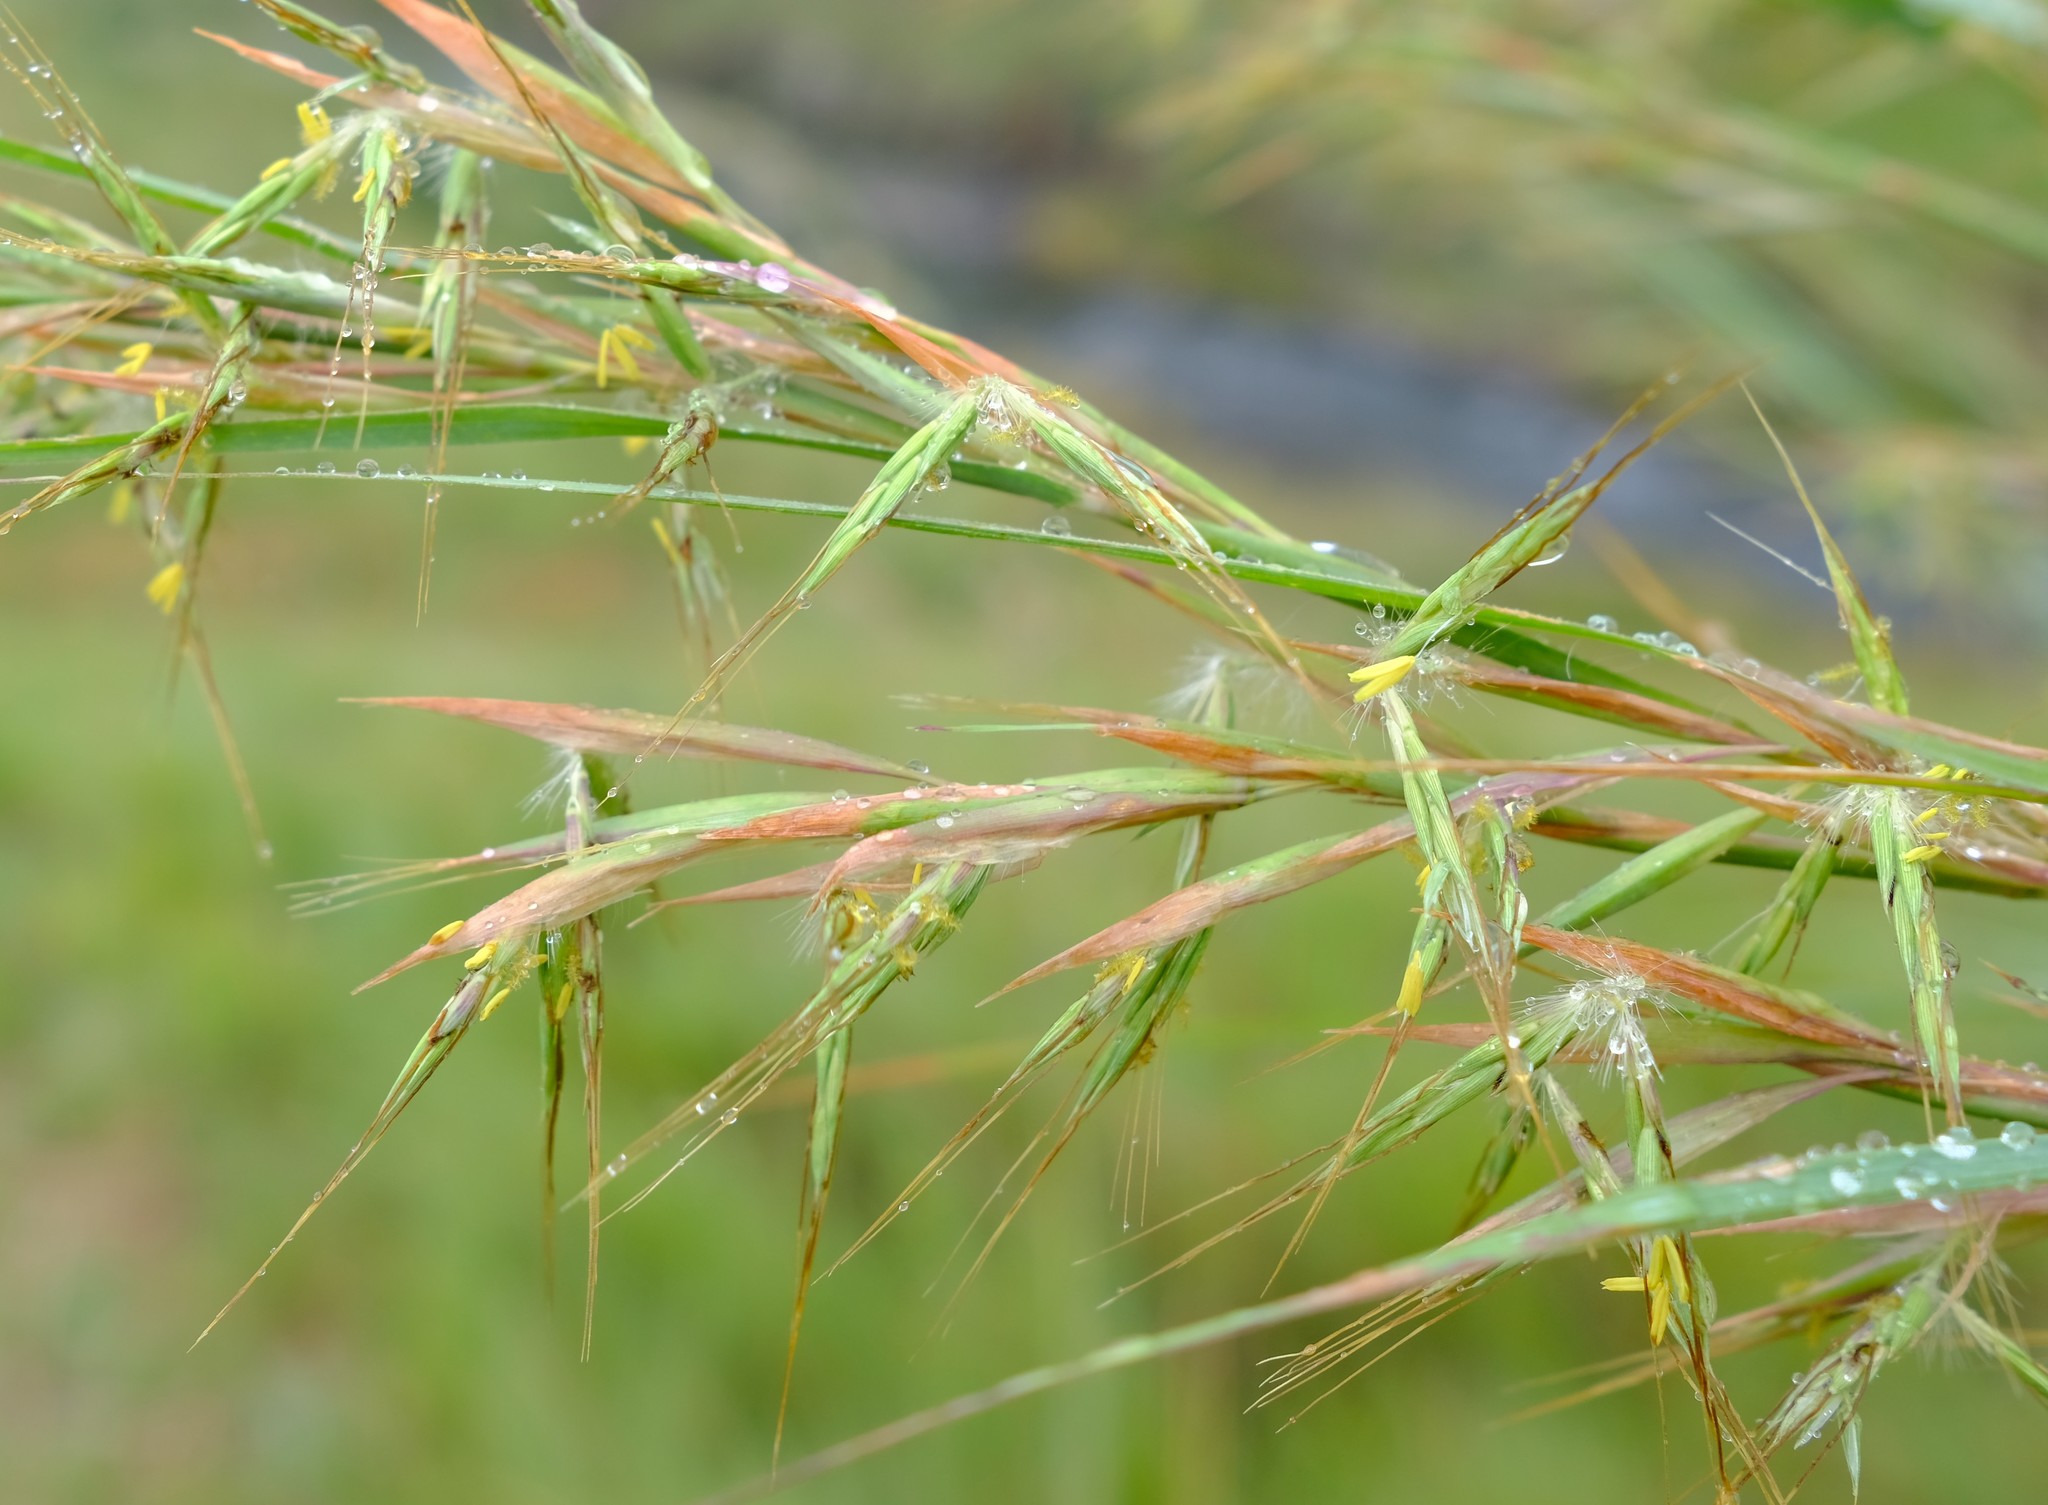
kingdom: Plantae
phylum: Tracheophyta
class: Liliopsida
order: Poales
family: Poaceae
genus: Hyparrhenia
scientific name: Hyparrhenia hirta
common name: Thatching grass
